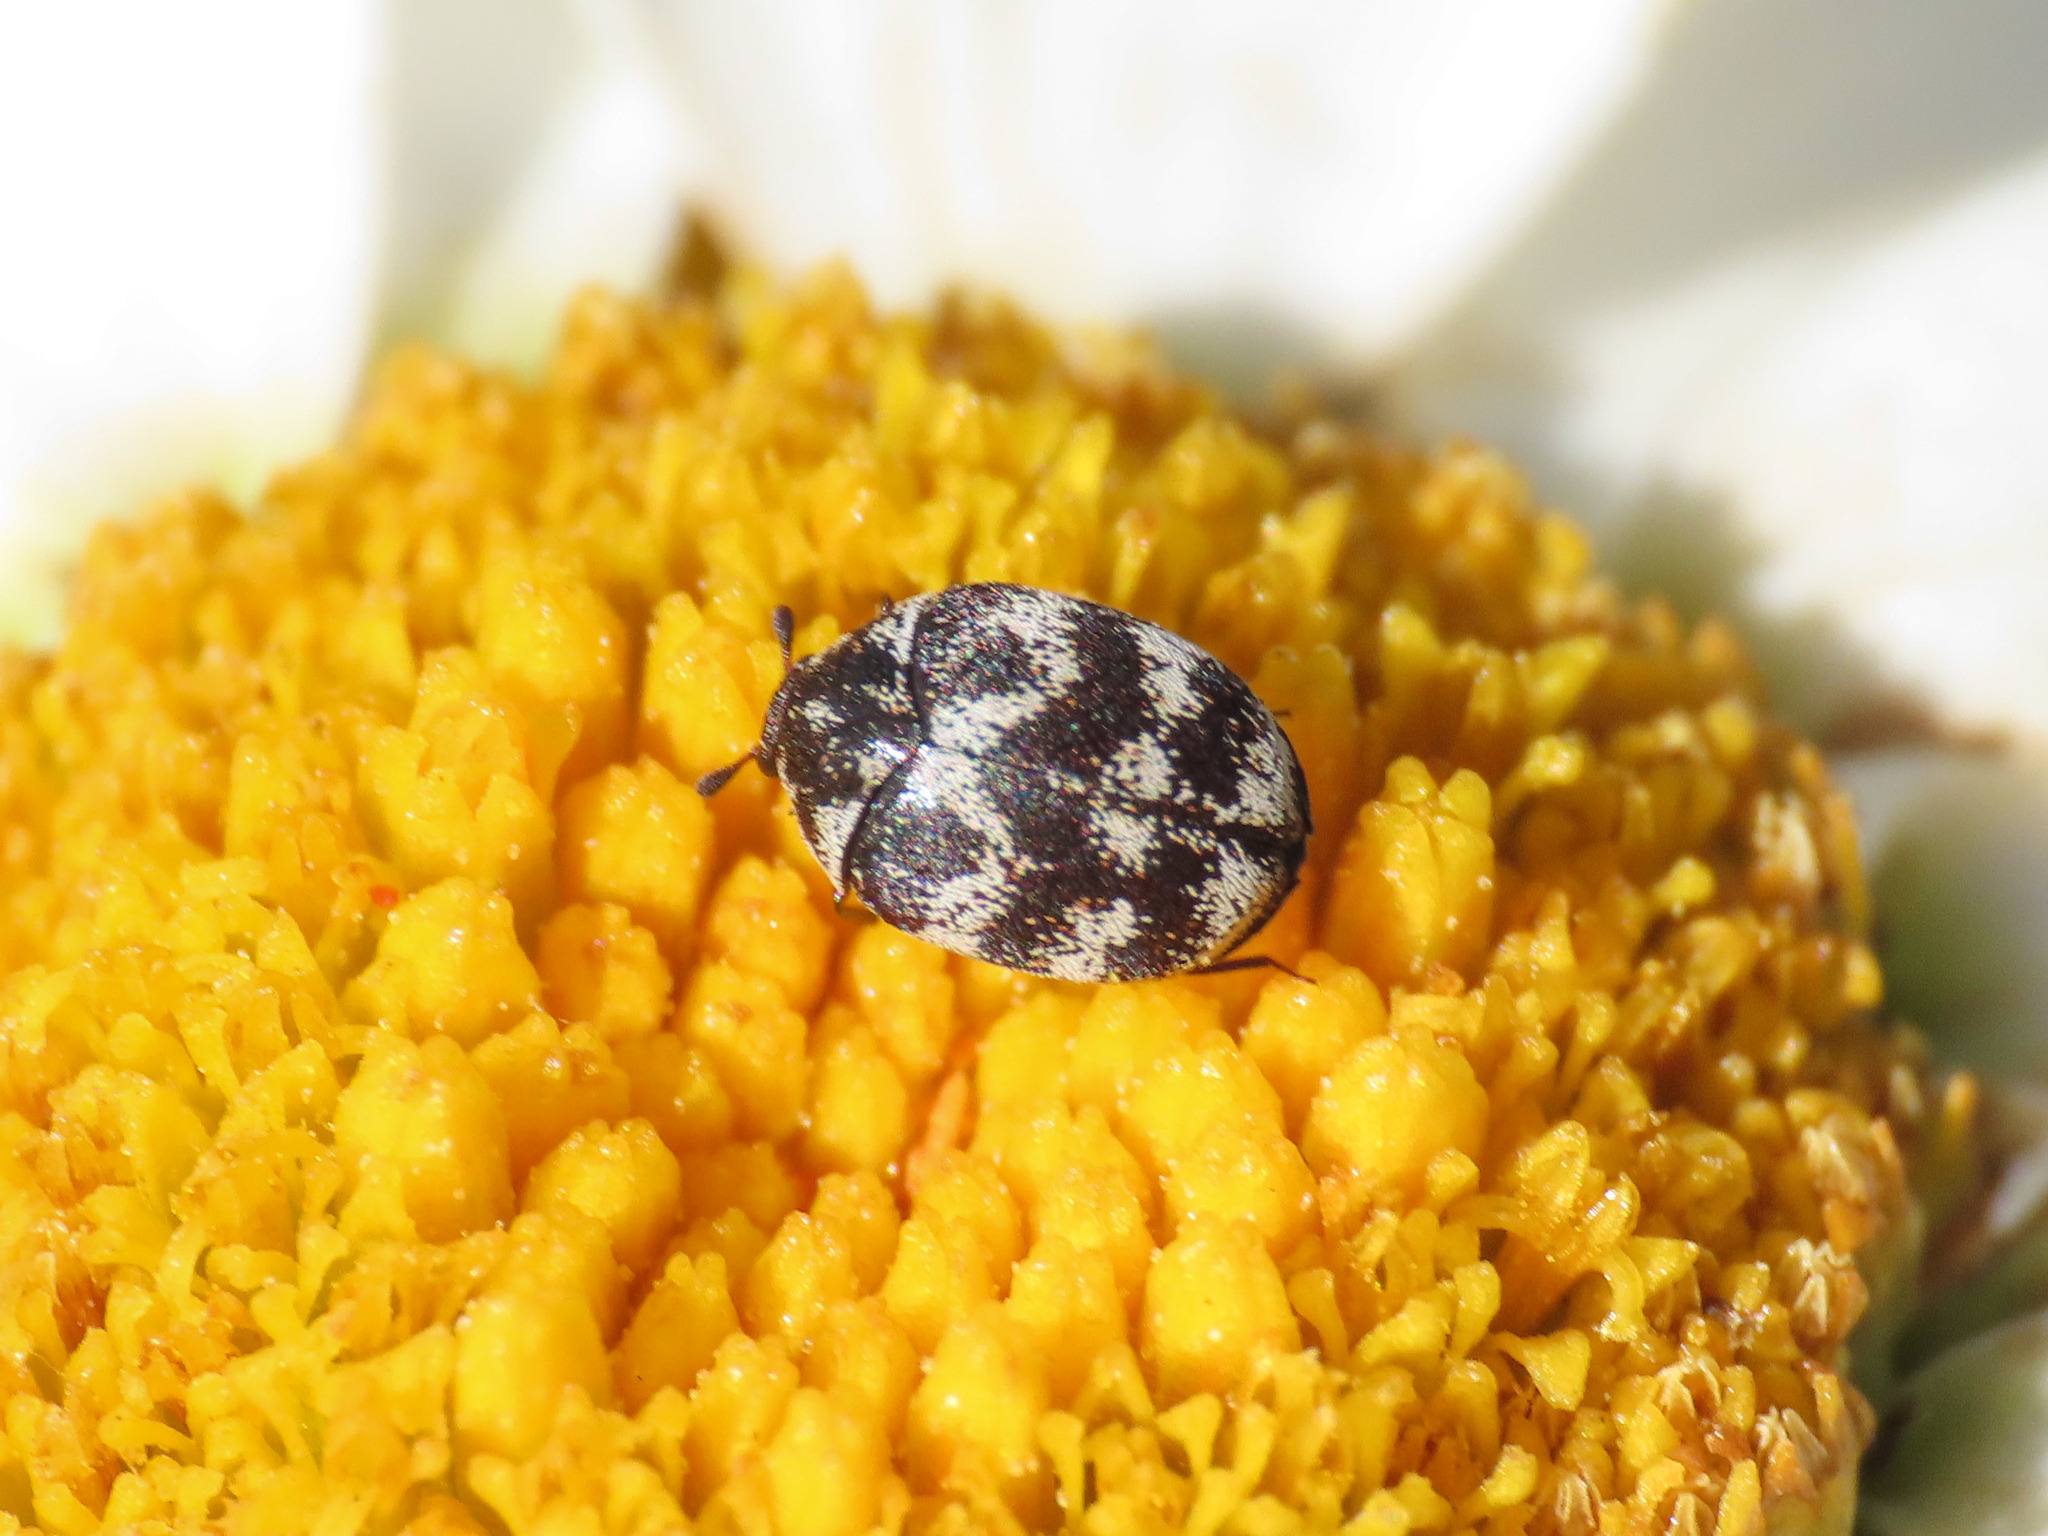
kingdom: Animalia
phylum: Arthropoda
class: Insecta
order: Coleoptera
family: Dermestidae
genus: Anthrenus
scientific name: Anthrenus signatus
